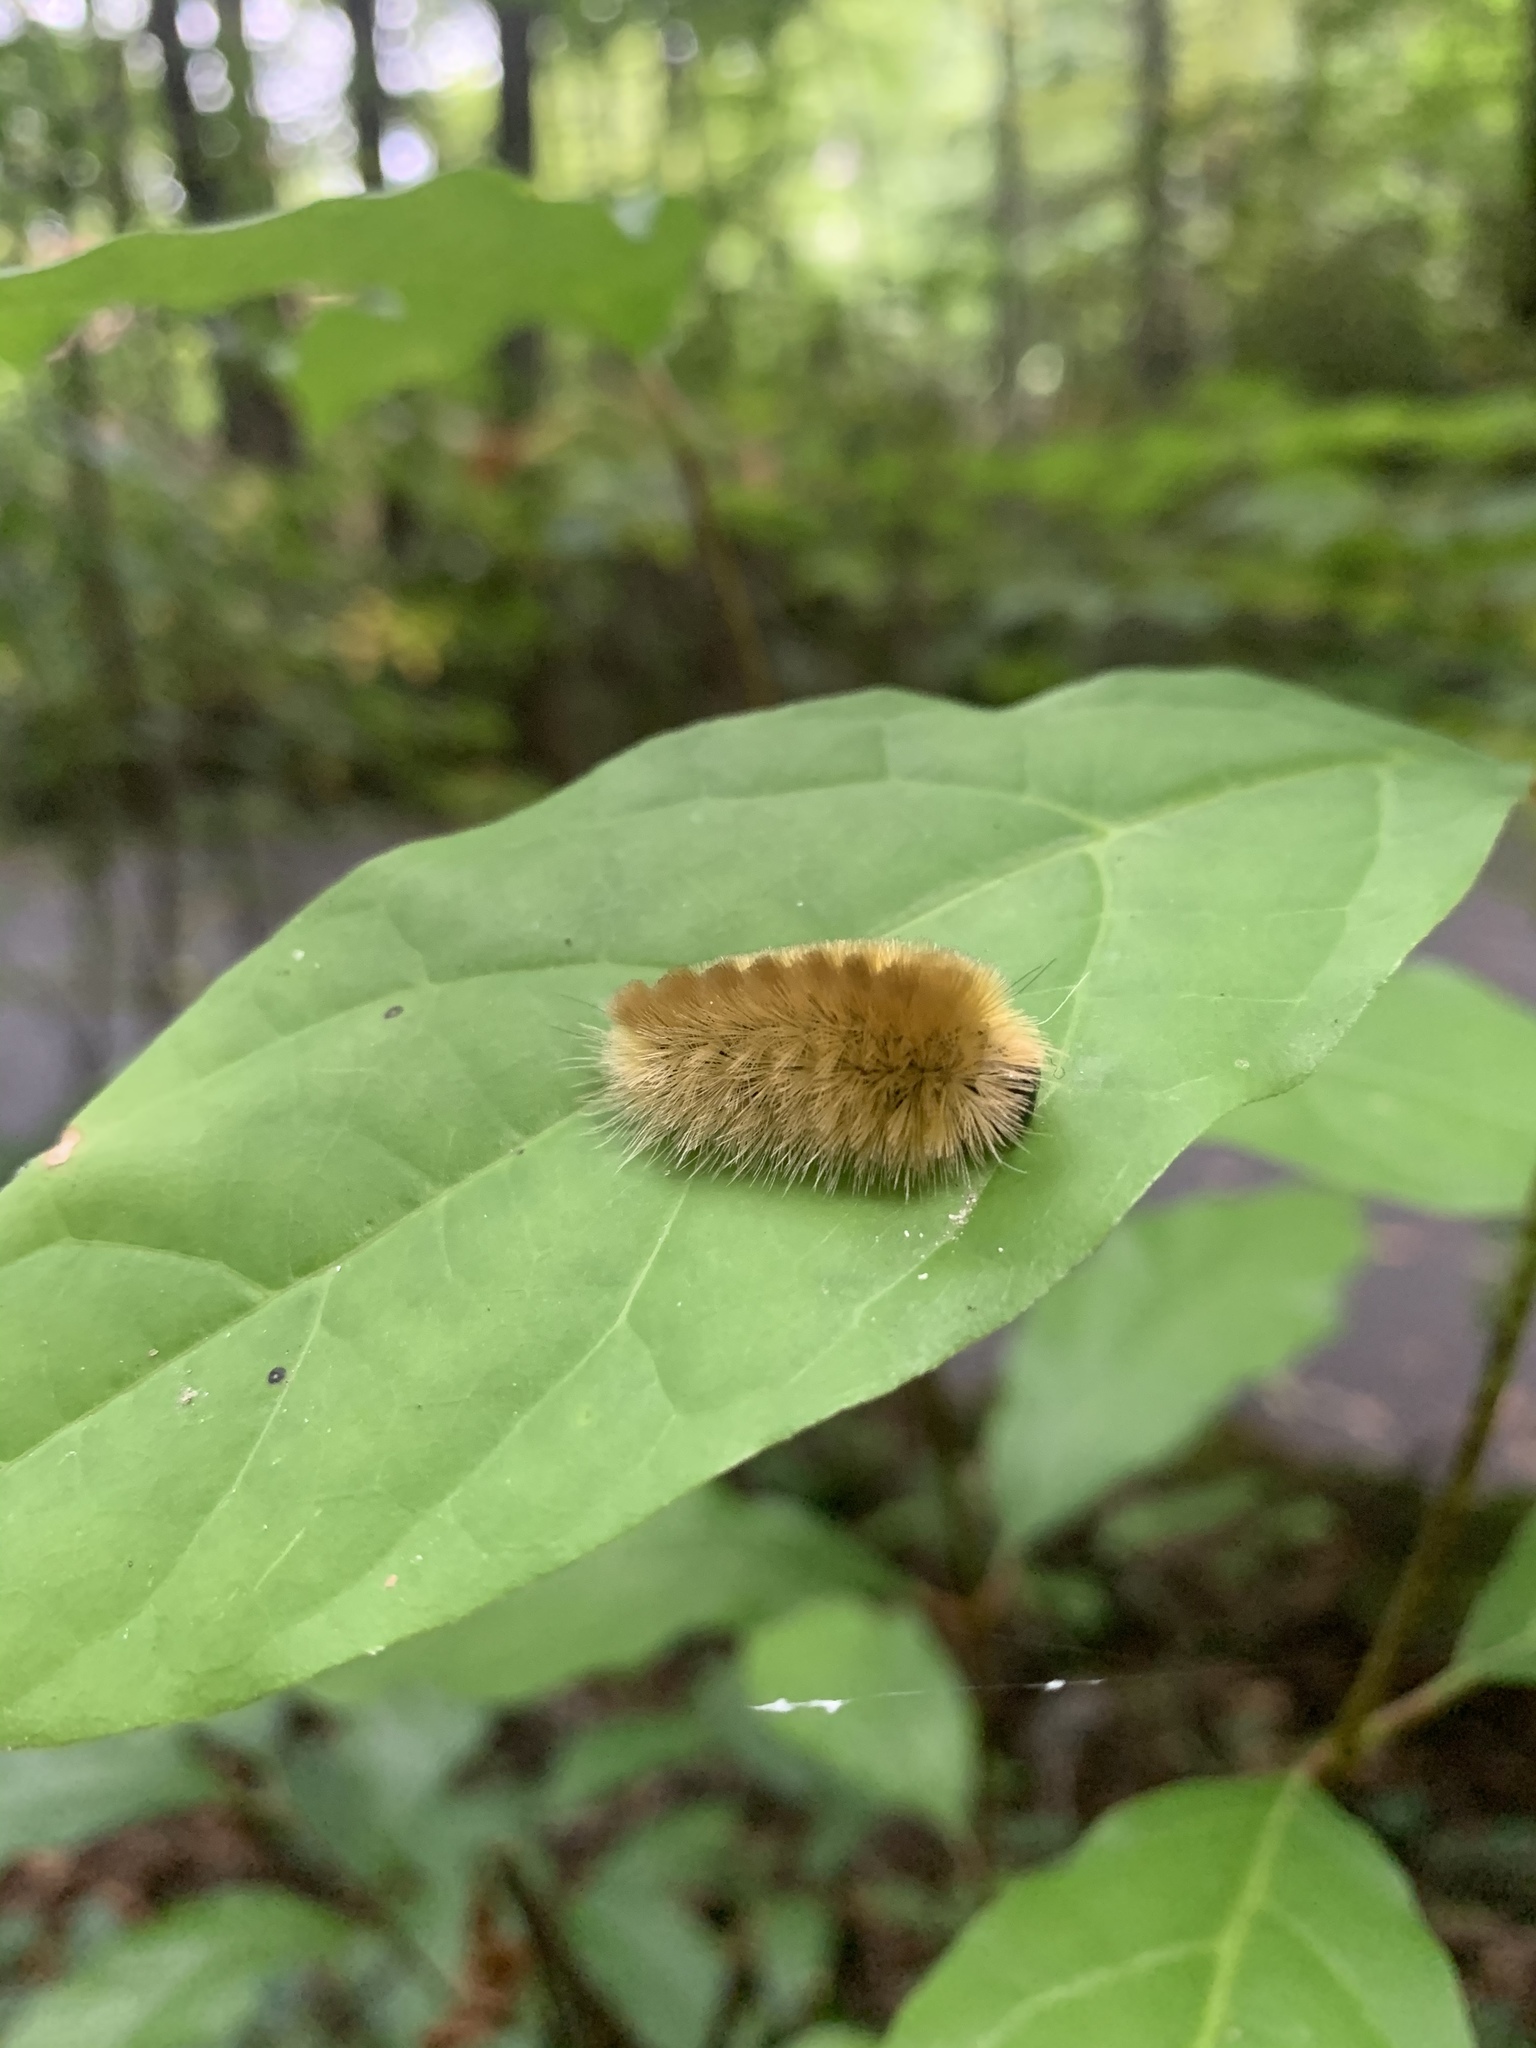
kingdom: Animalia
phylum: Arthropoda
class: Insecta
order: Lepidoptera
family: Erebidae
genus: Halysidota
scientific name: Halysidota tessellaris
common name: Banded tussock moth
